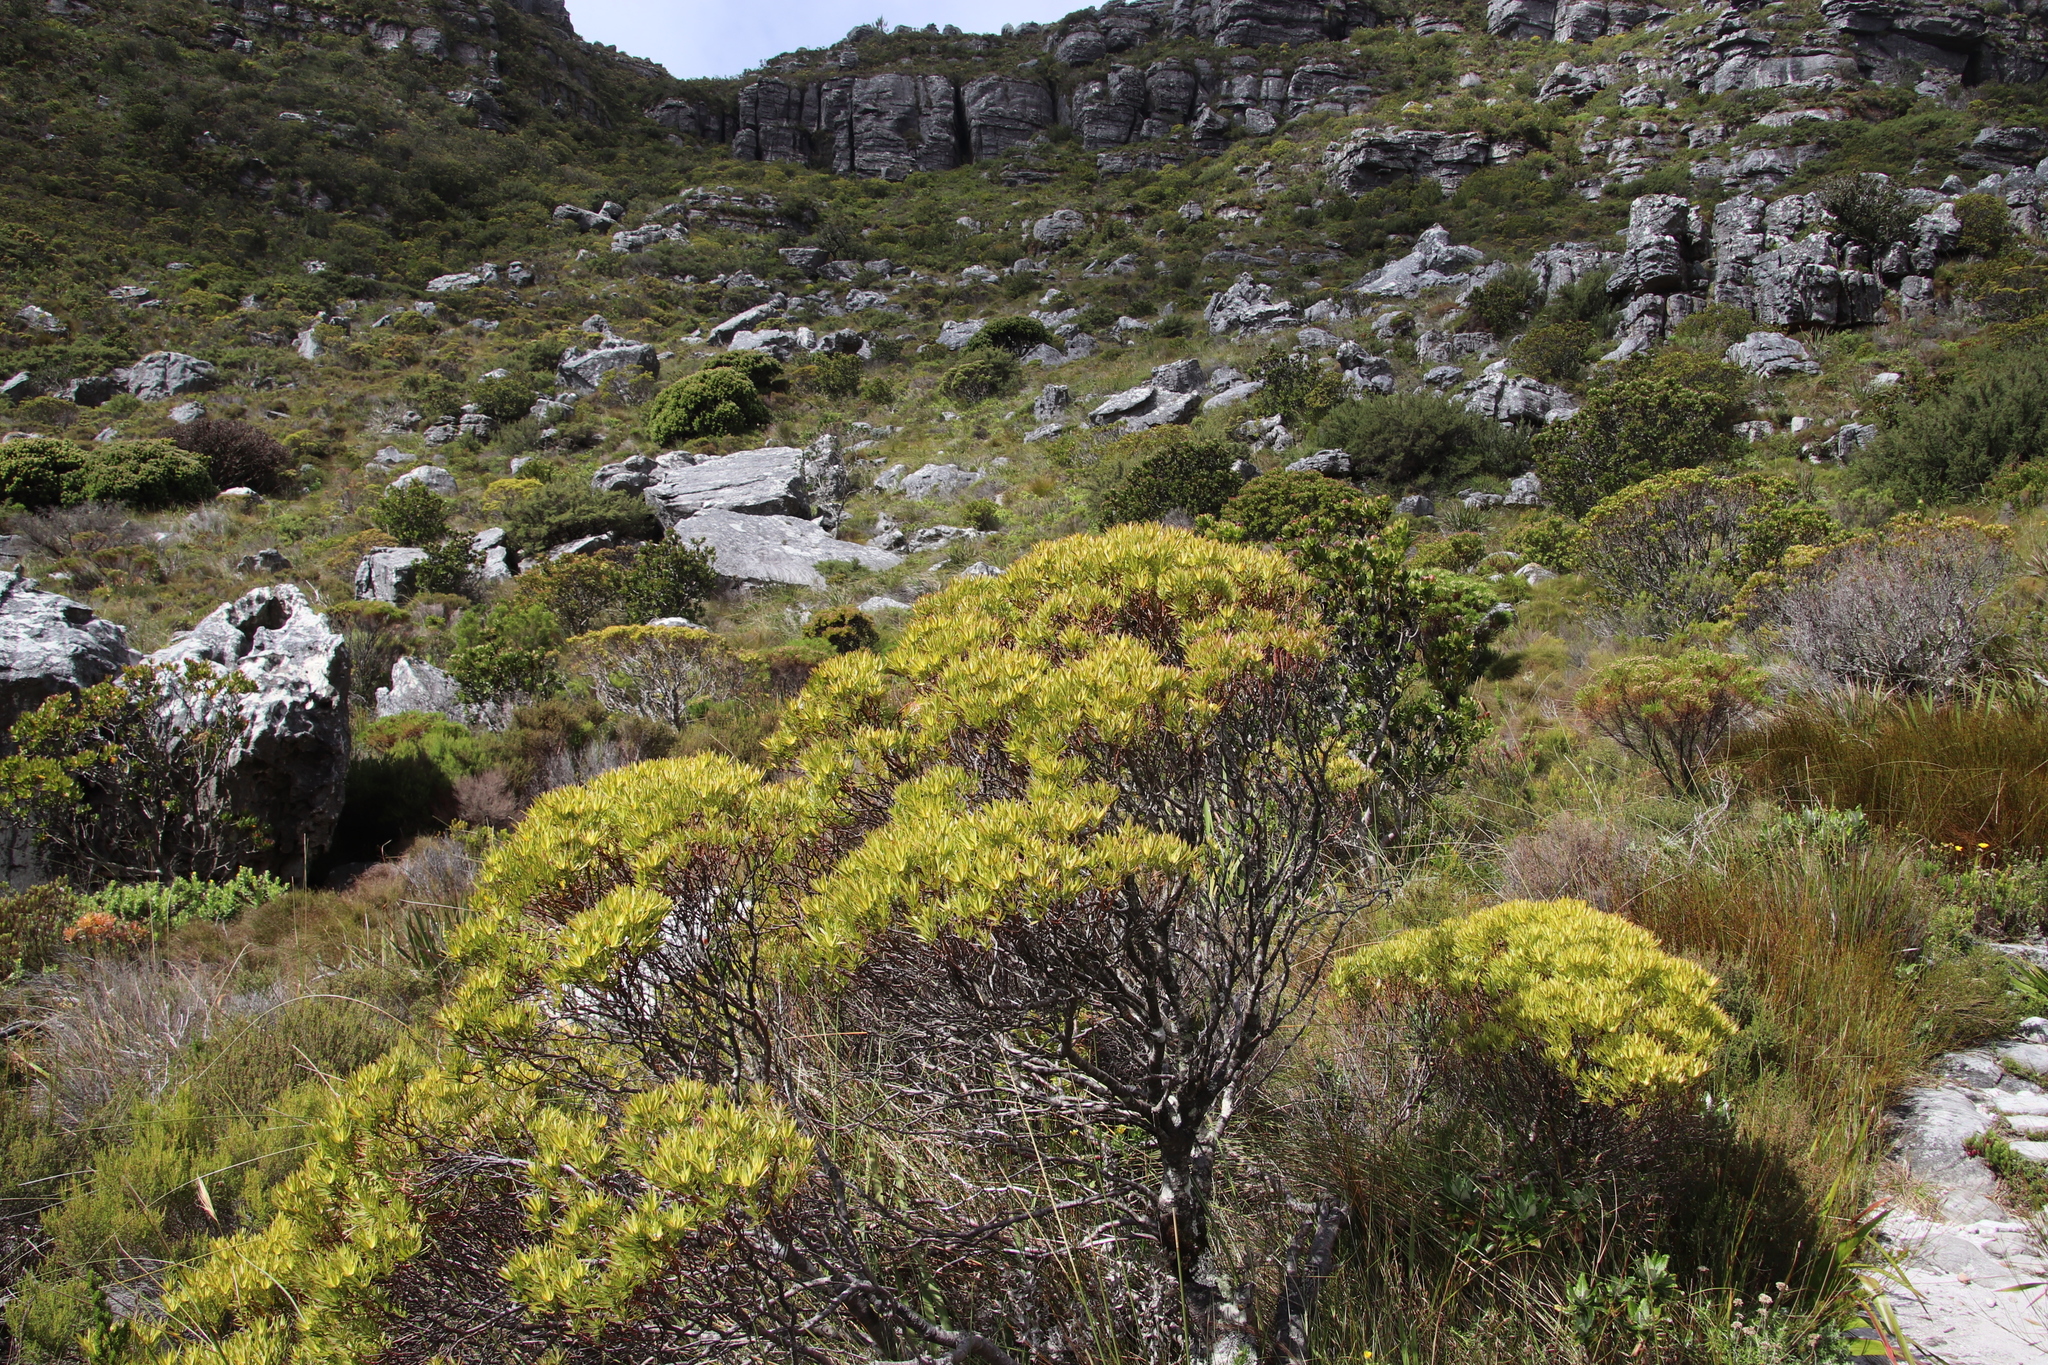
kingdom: Plantae
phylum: Tracheophyta
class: Magnoliopsida
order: Proteales
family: Proteaceae
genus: Leucadendron
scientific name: Leucadendron xanthoconus
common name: Sickle-leaf conebush
